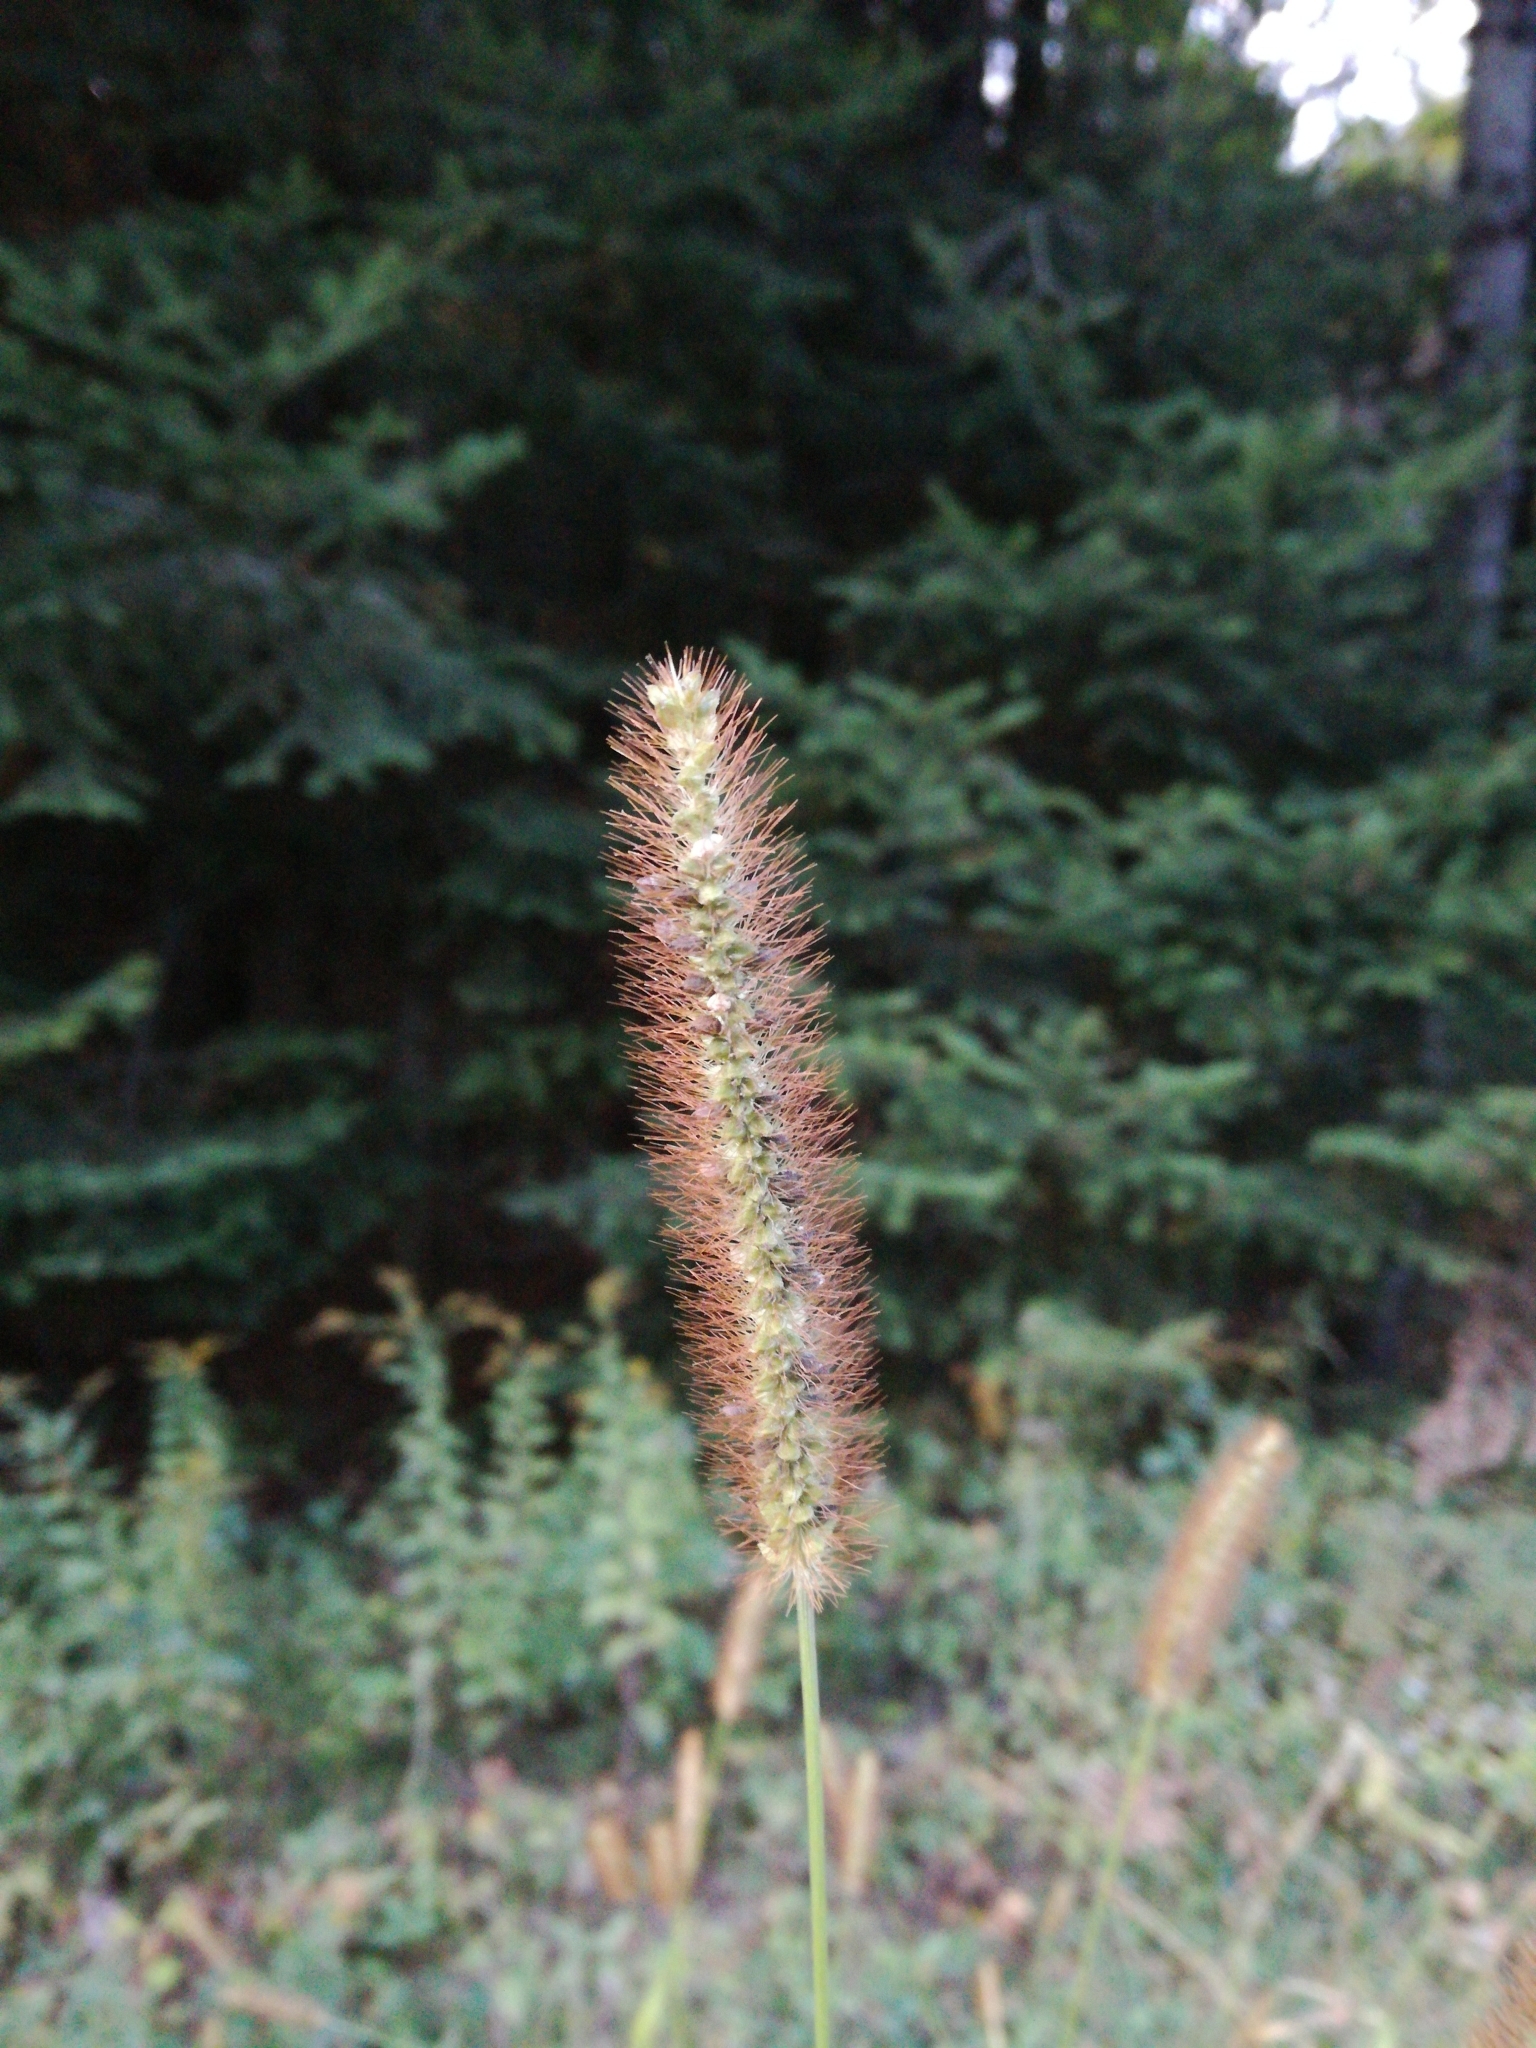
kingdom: Plantae
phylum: Tracheophyta
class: Liliopsida
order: Poales
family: Poaceae
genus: Setaria
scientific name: Setaria pumila
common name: Yellow bristle-grass
